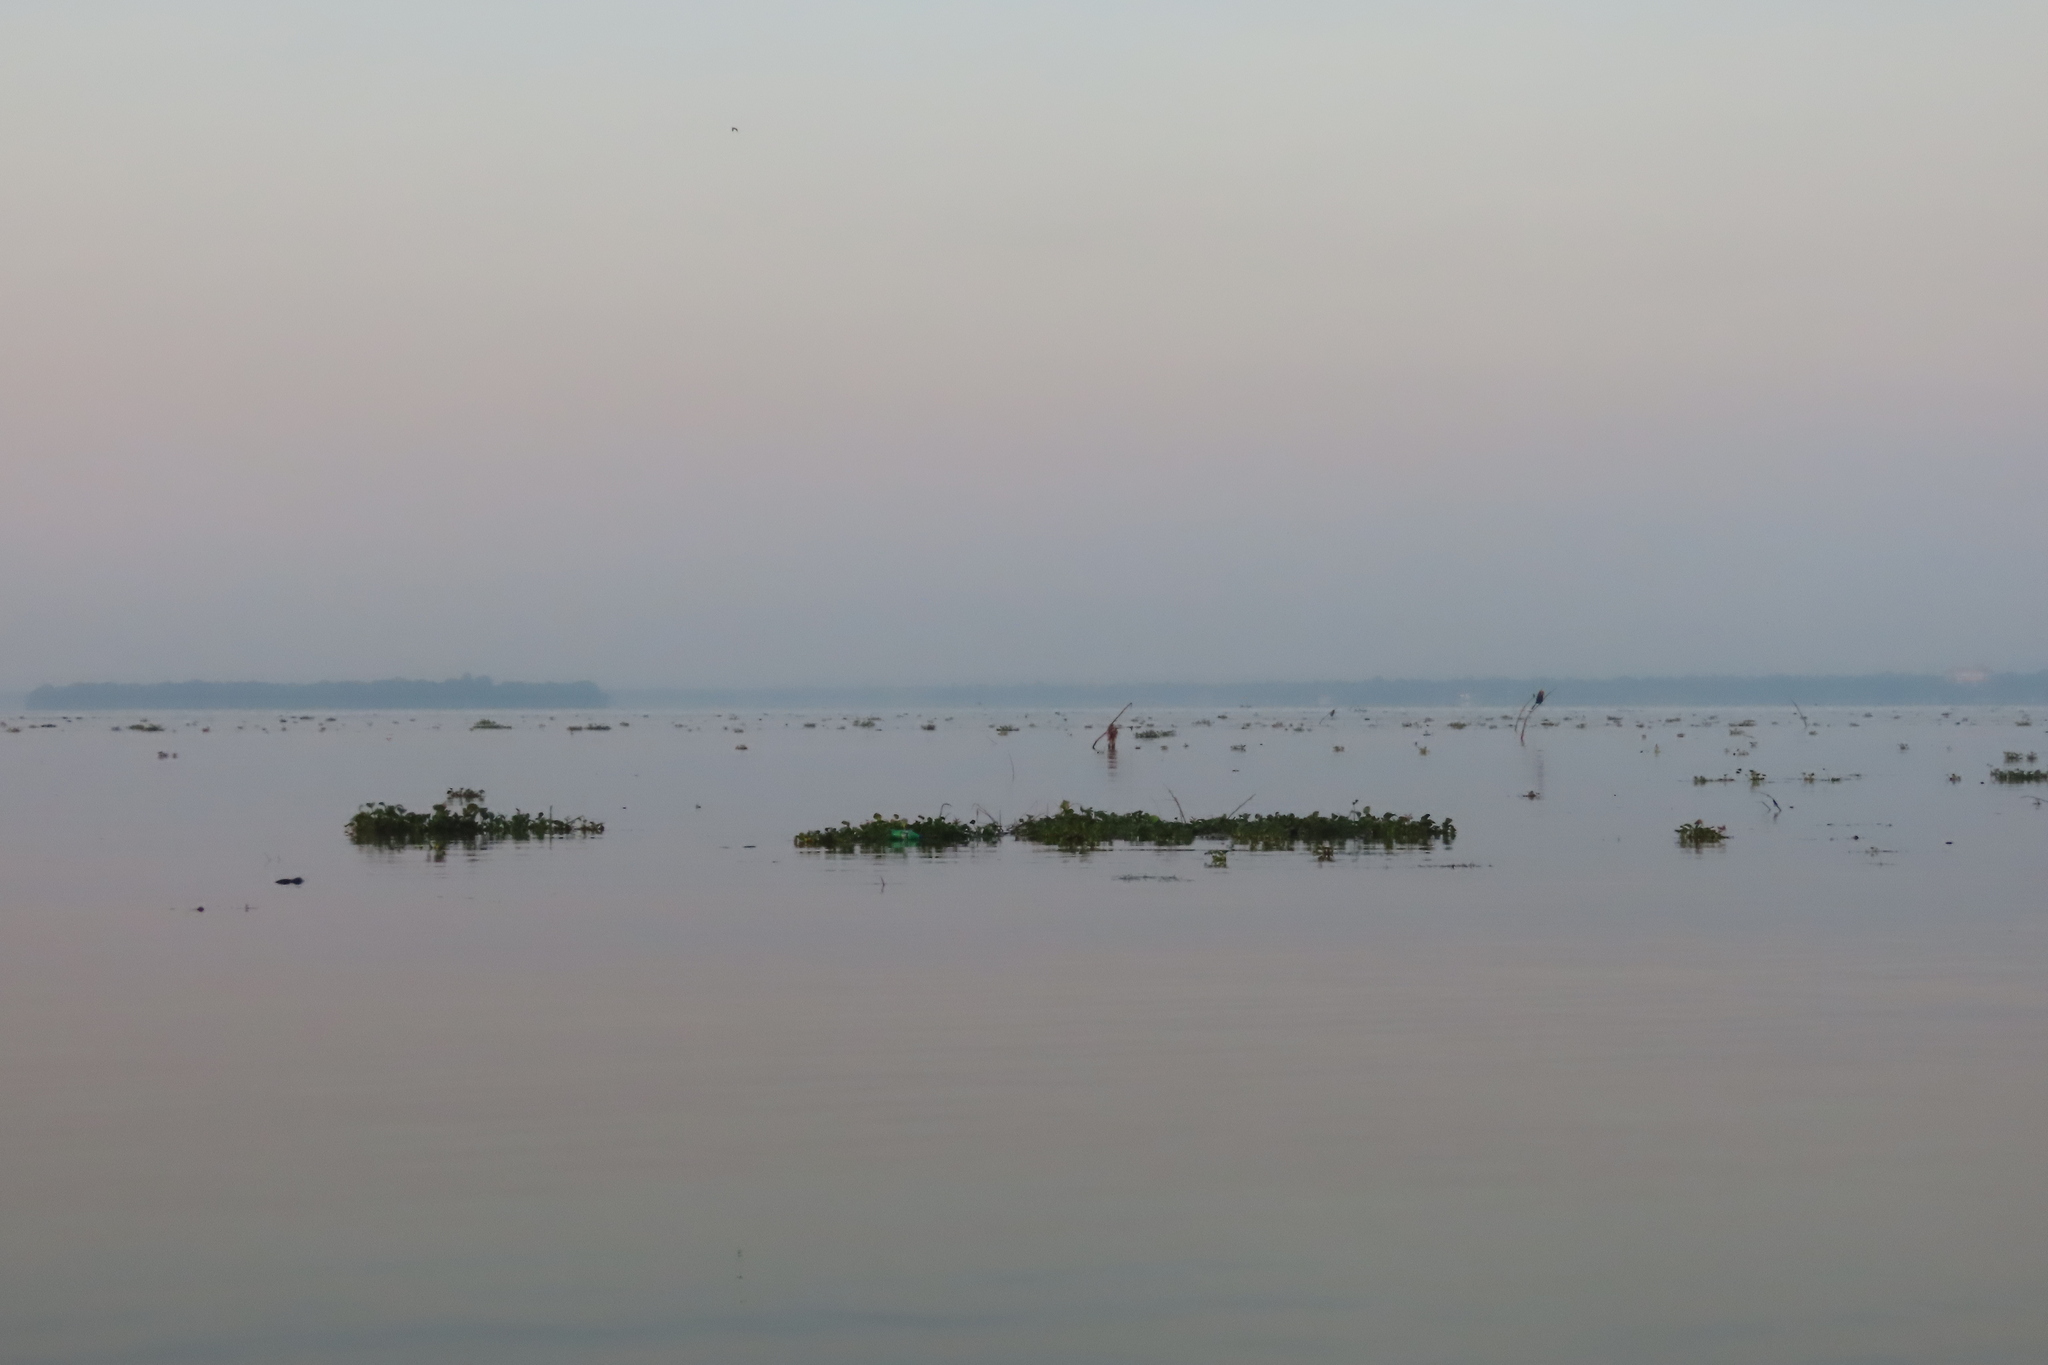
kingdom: Plantae
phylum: Tracheophyta
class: Liliopsida
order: Commelinales
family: Pontederiaceae
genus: Pontederia
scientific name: Pontederia crassipes
